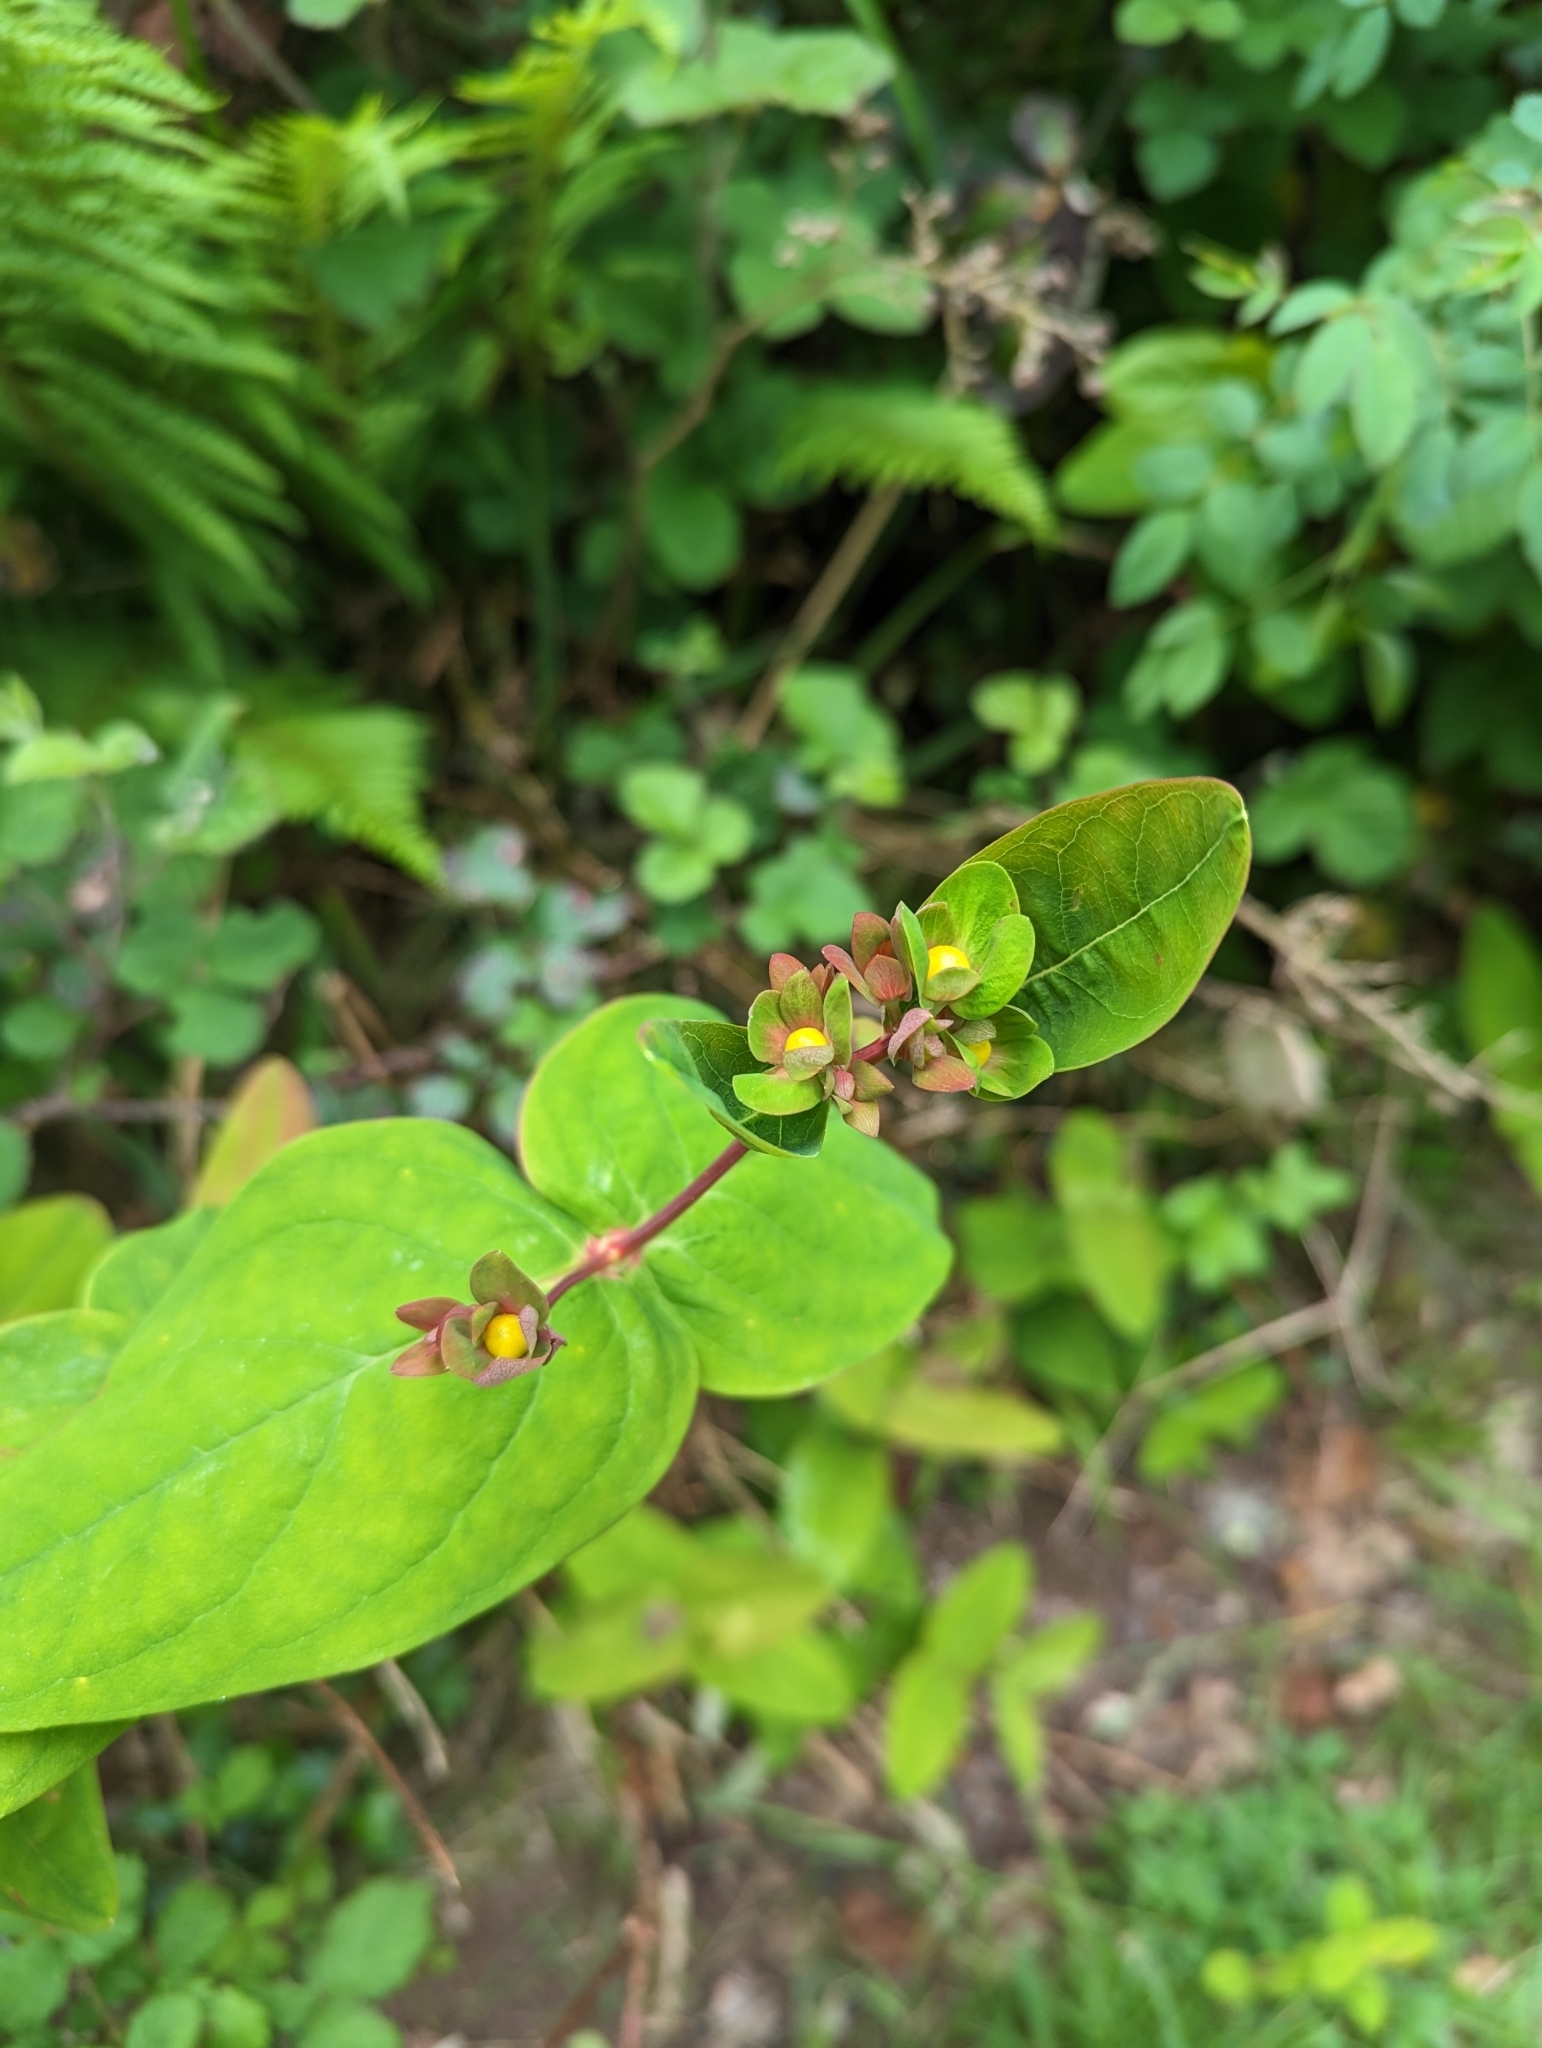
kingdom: Plantae
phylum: Tracheophyta
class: Magnoliopsida
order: Malpighiales
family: Hypericaceae
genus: Hypericum
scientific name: Hypericum androsaemum
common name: Sweet-amber
